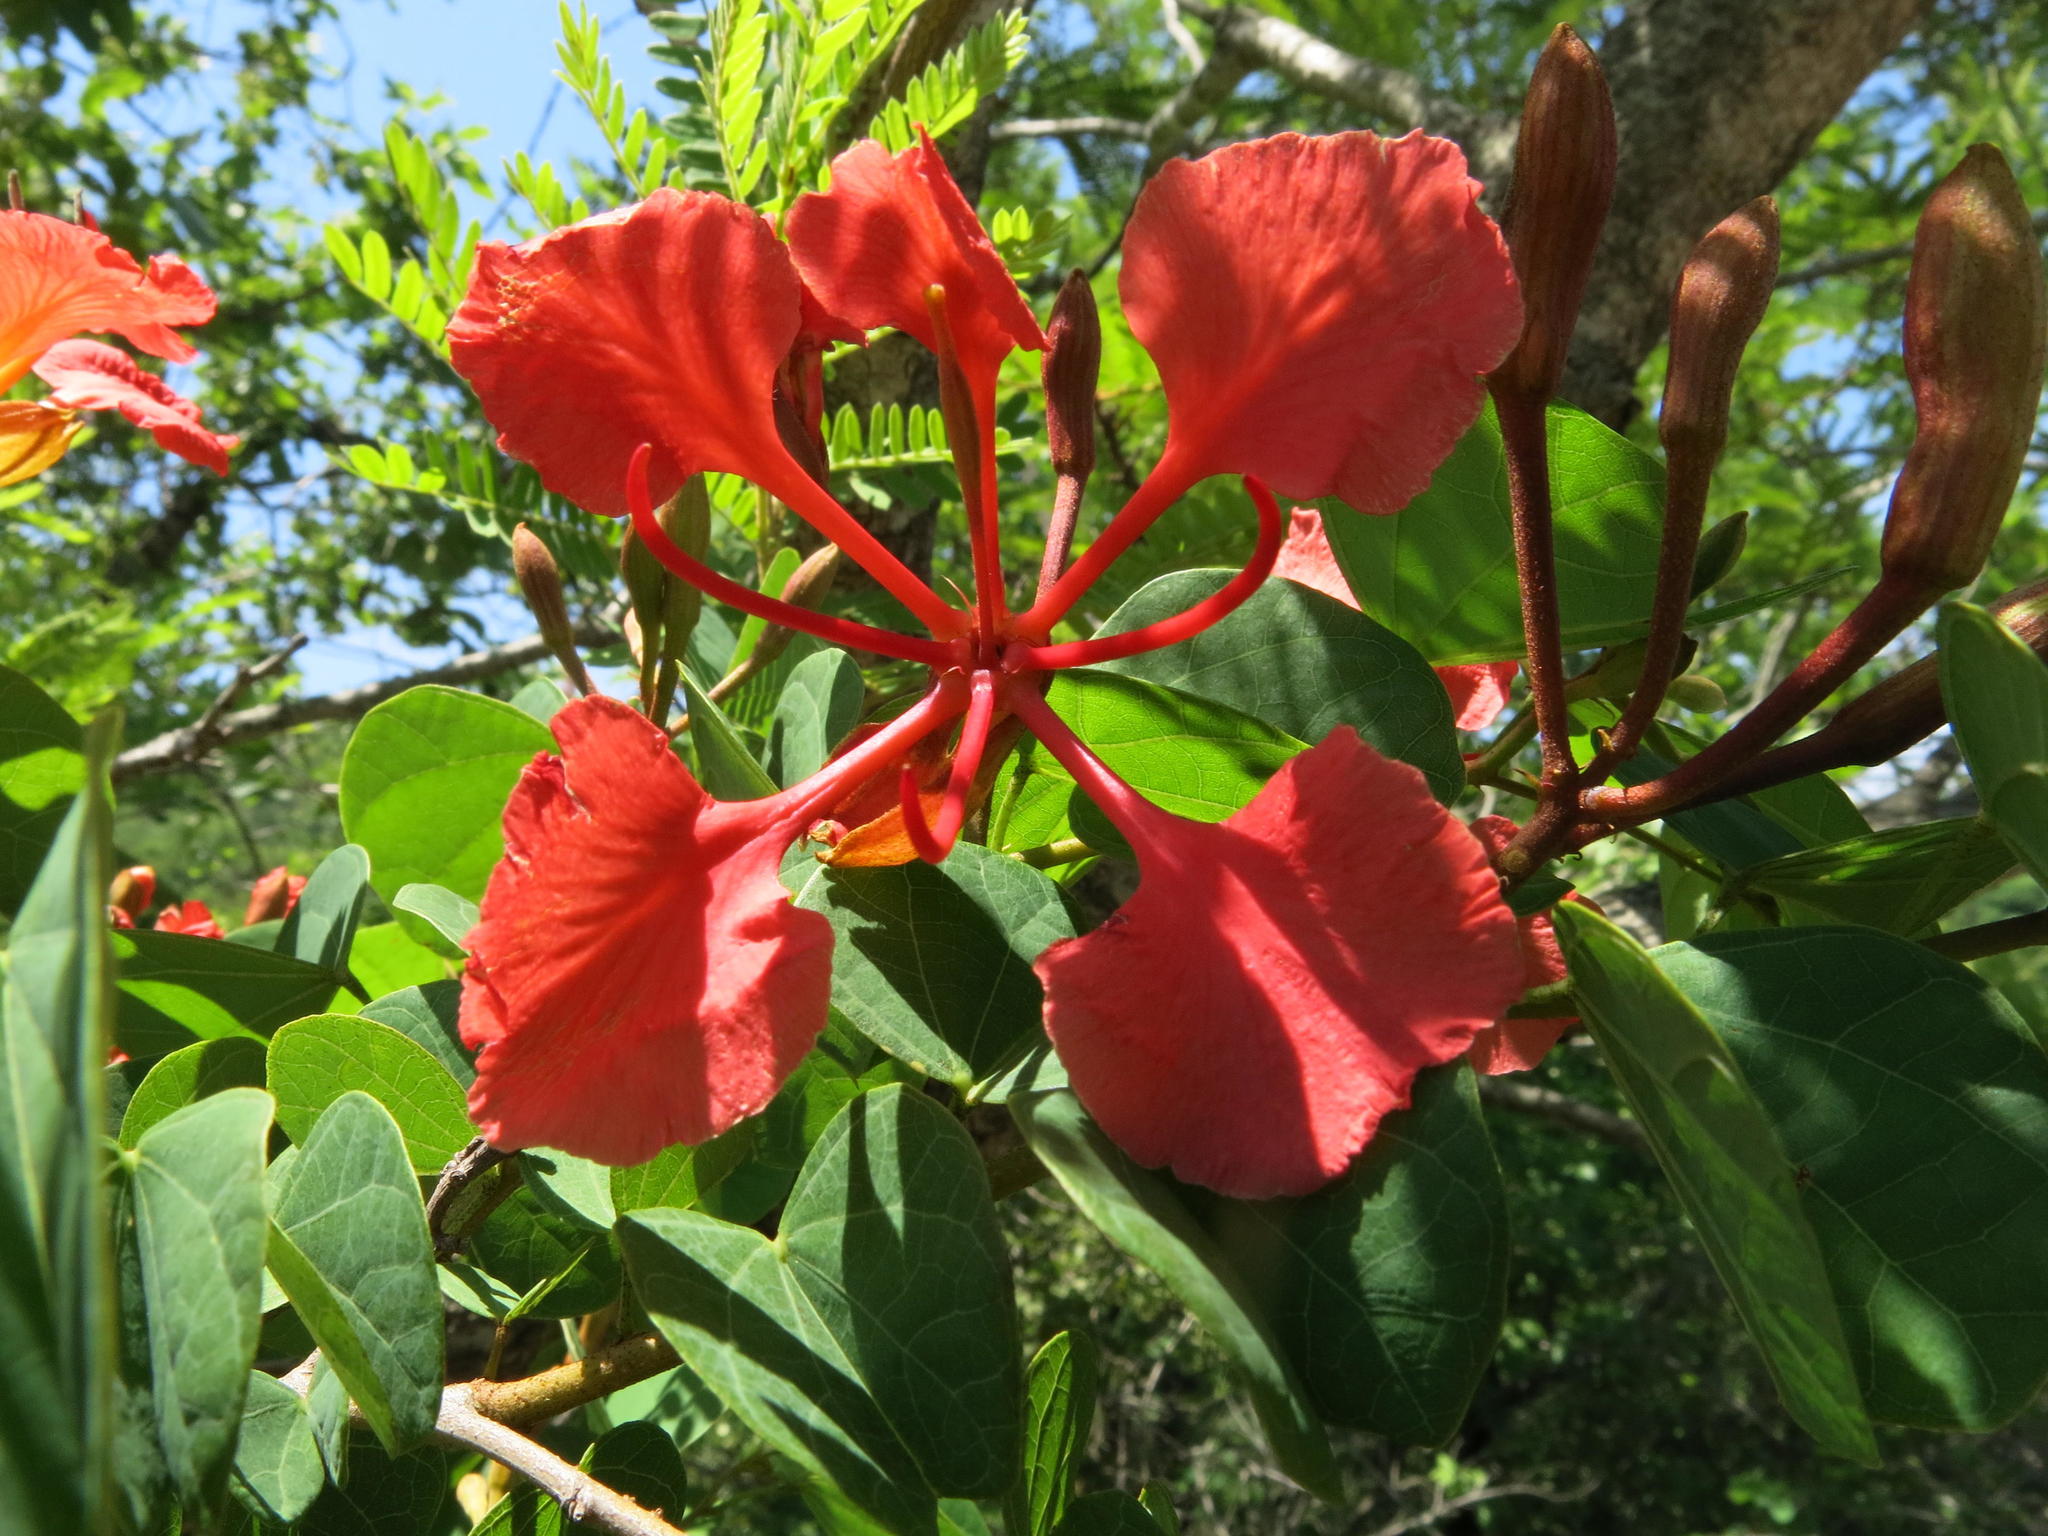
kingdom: Plantae
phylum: Tracheophyta
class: Magnoliopsida
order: Fabales
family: Fabaceae
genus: Bauhinia
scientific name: Bauhinia galpinii
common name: African plume
